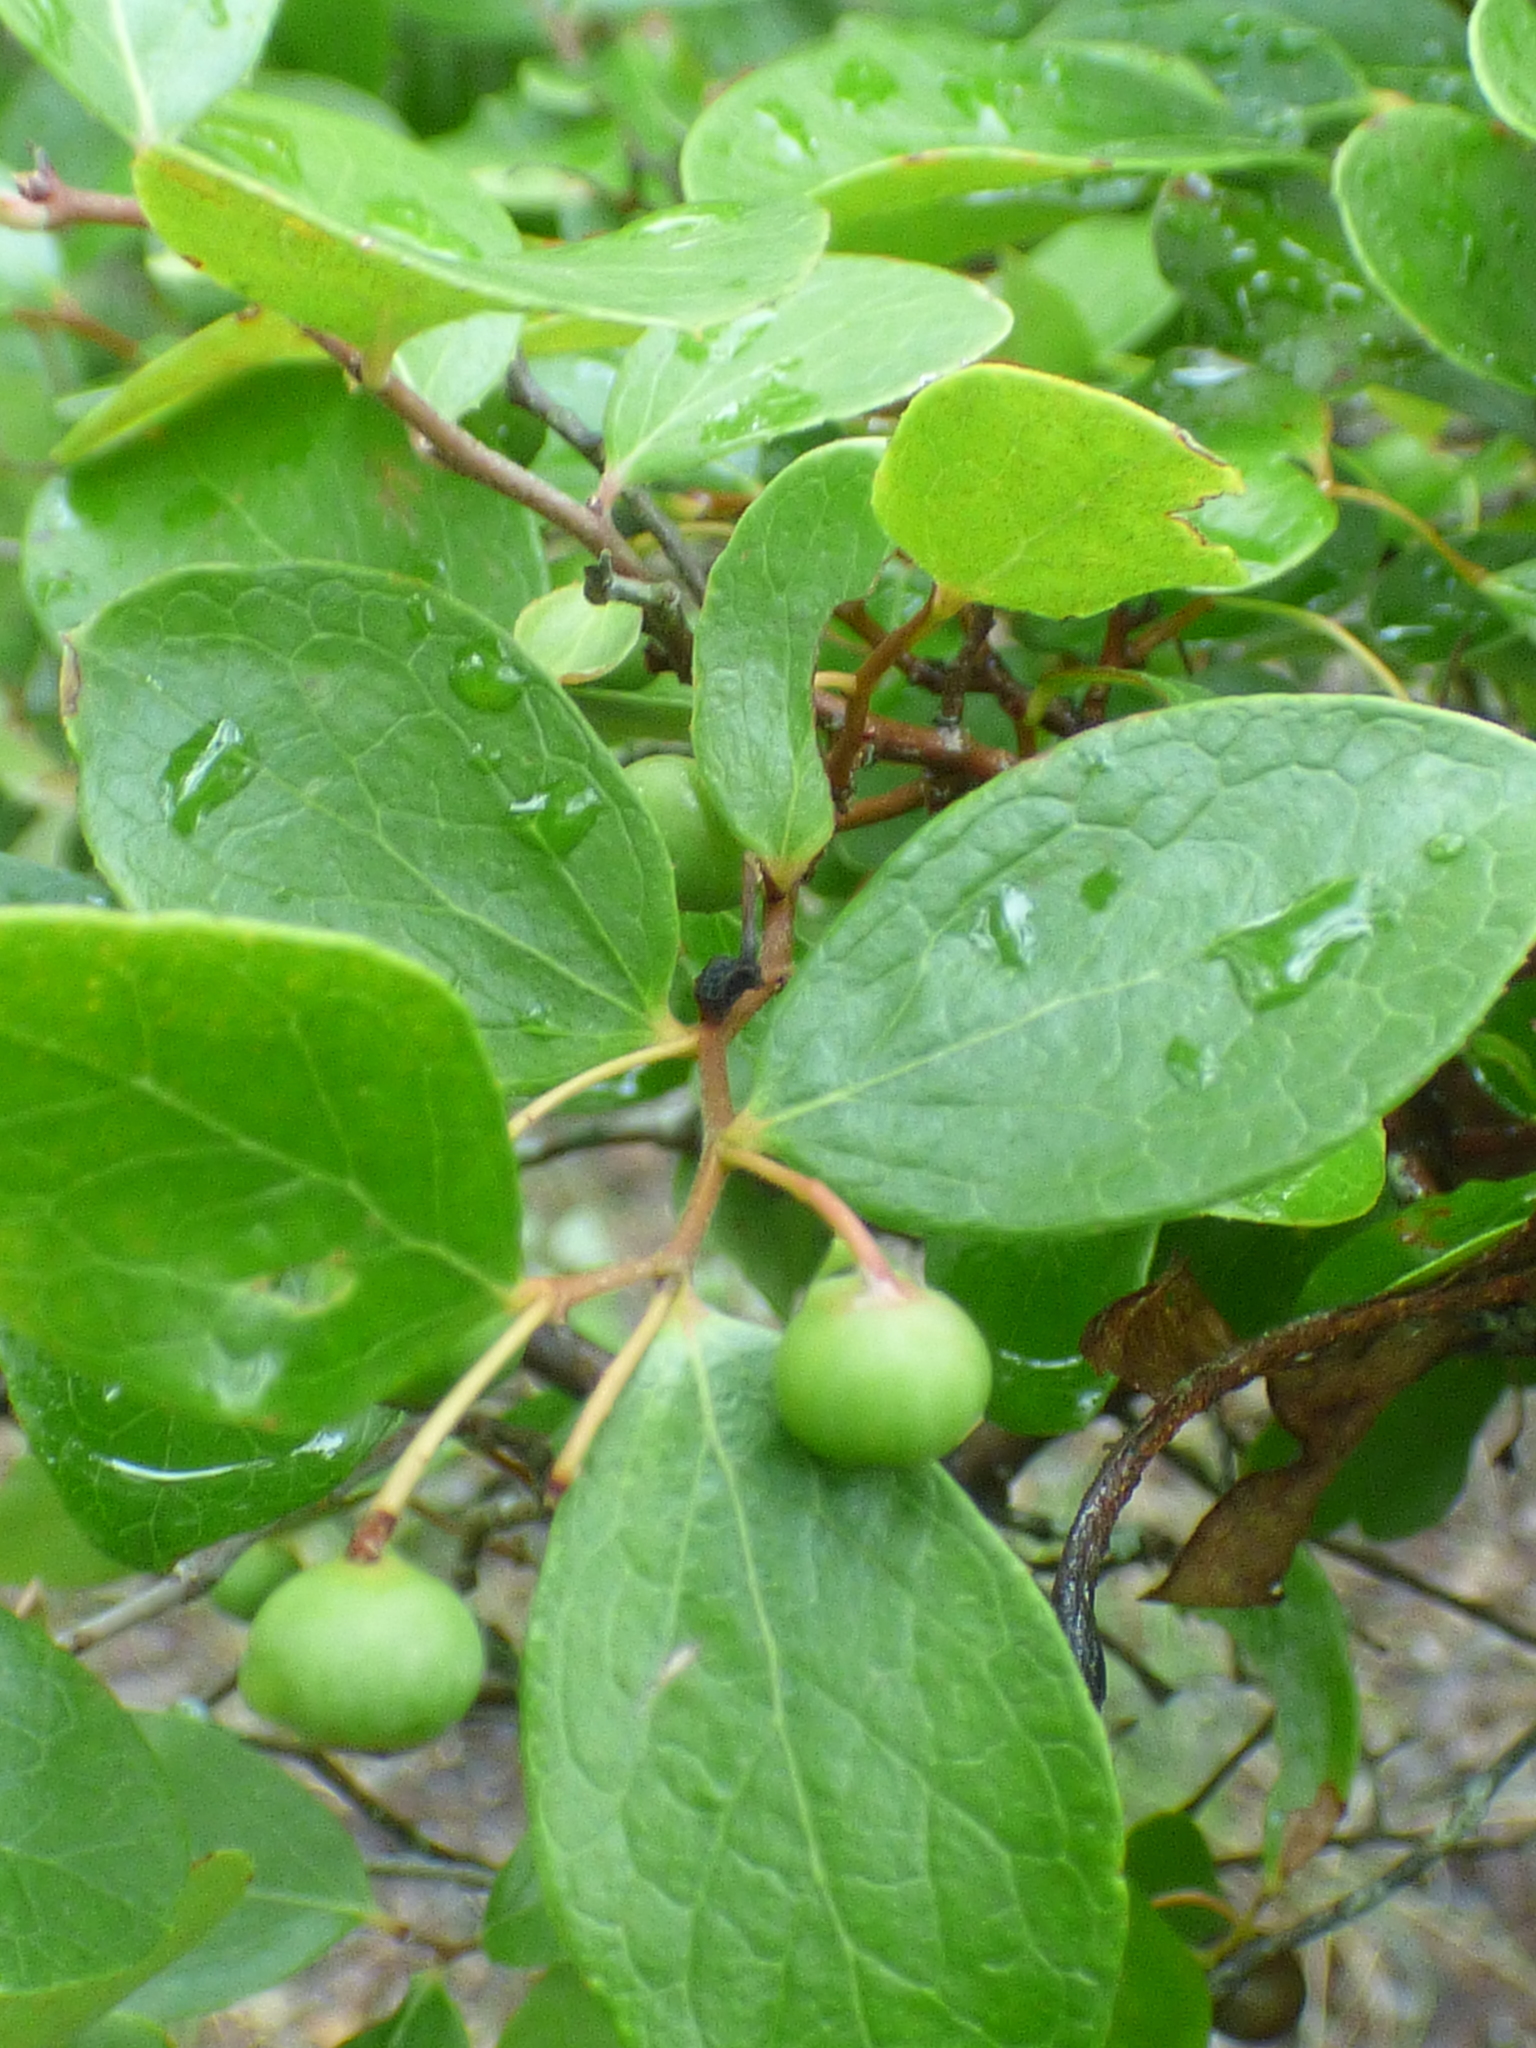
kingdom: Plantae
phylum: Tracheophyta
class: Magnoliopsida
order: Ericales
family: Ericaceae
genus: Vaccinium
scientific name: Vaccinium arboreum
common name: Farkleberry
